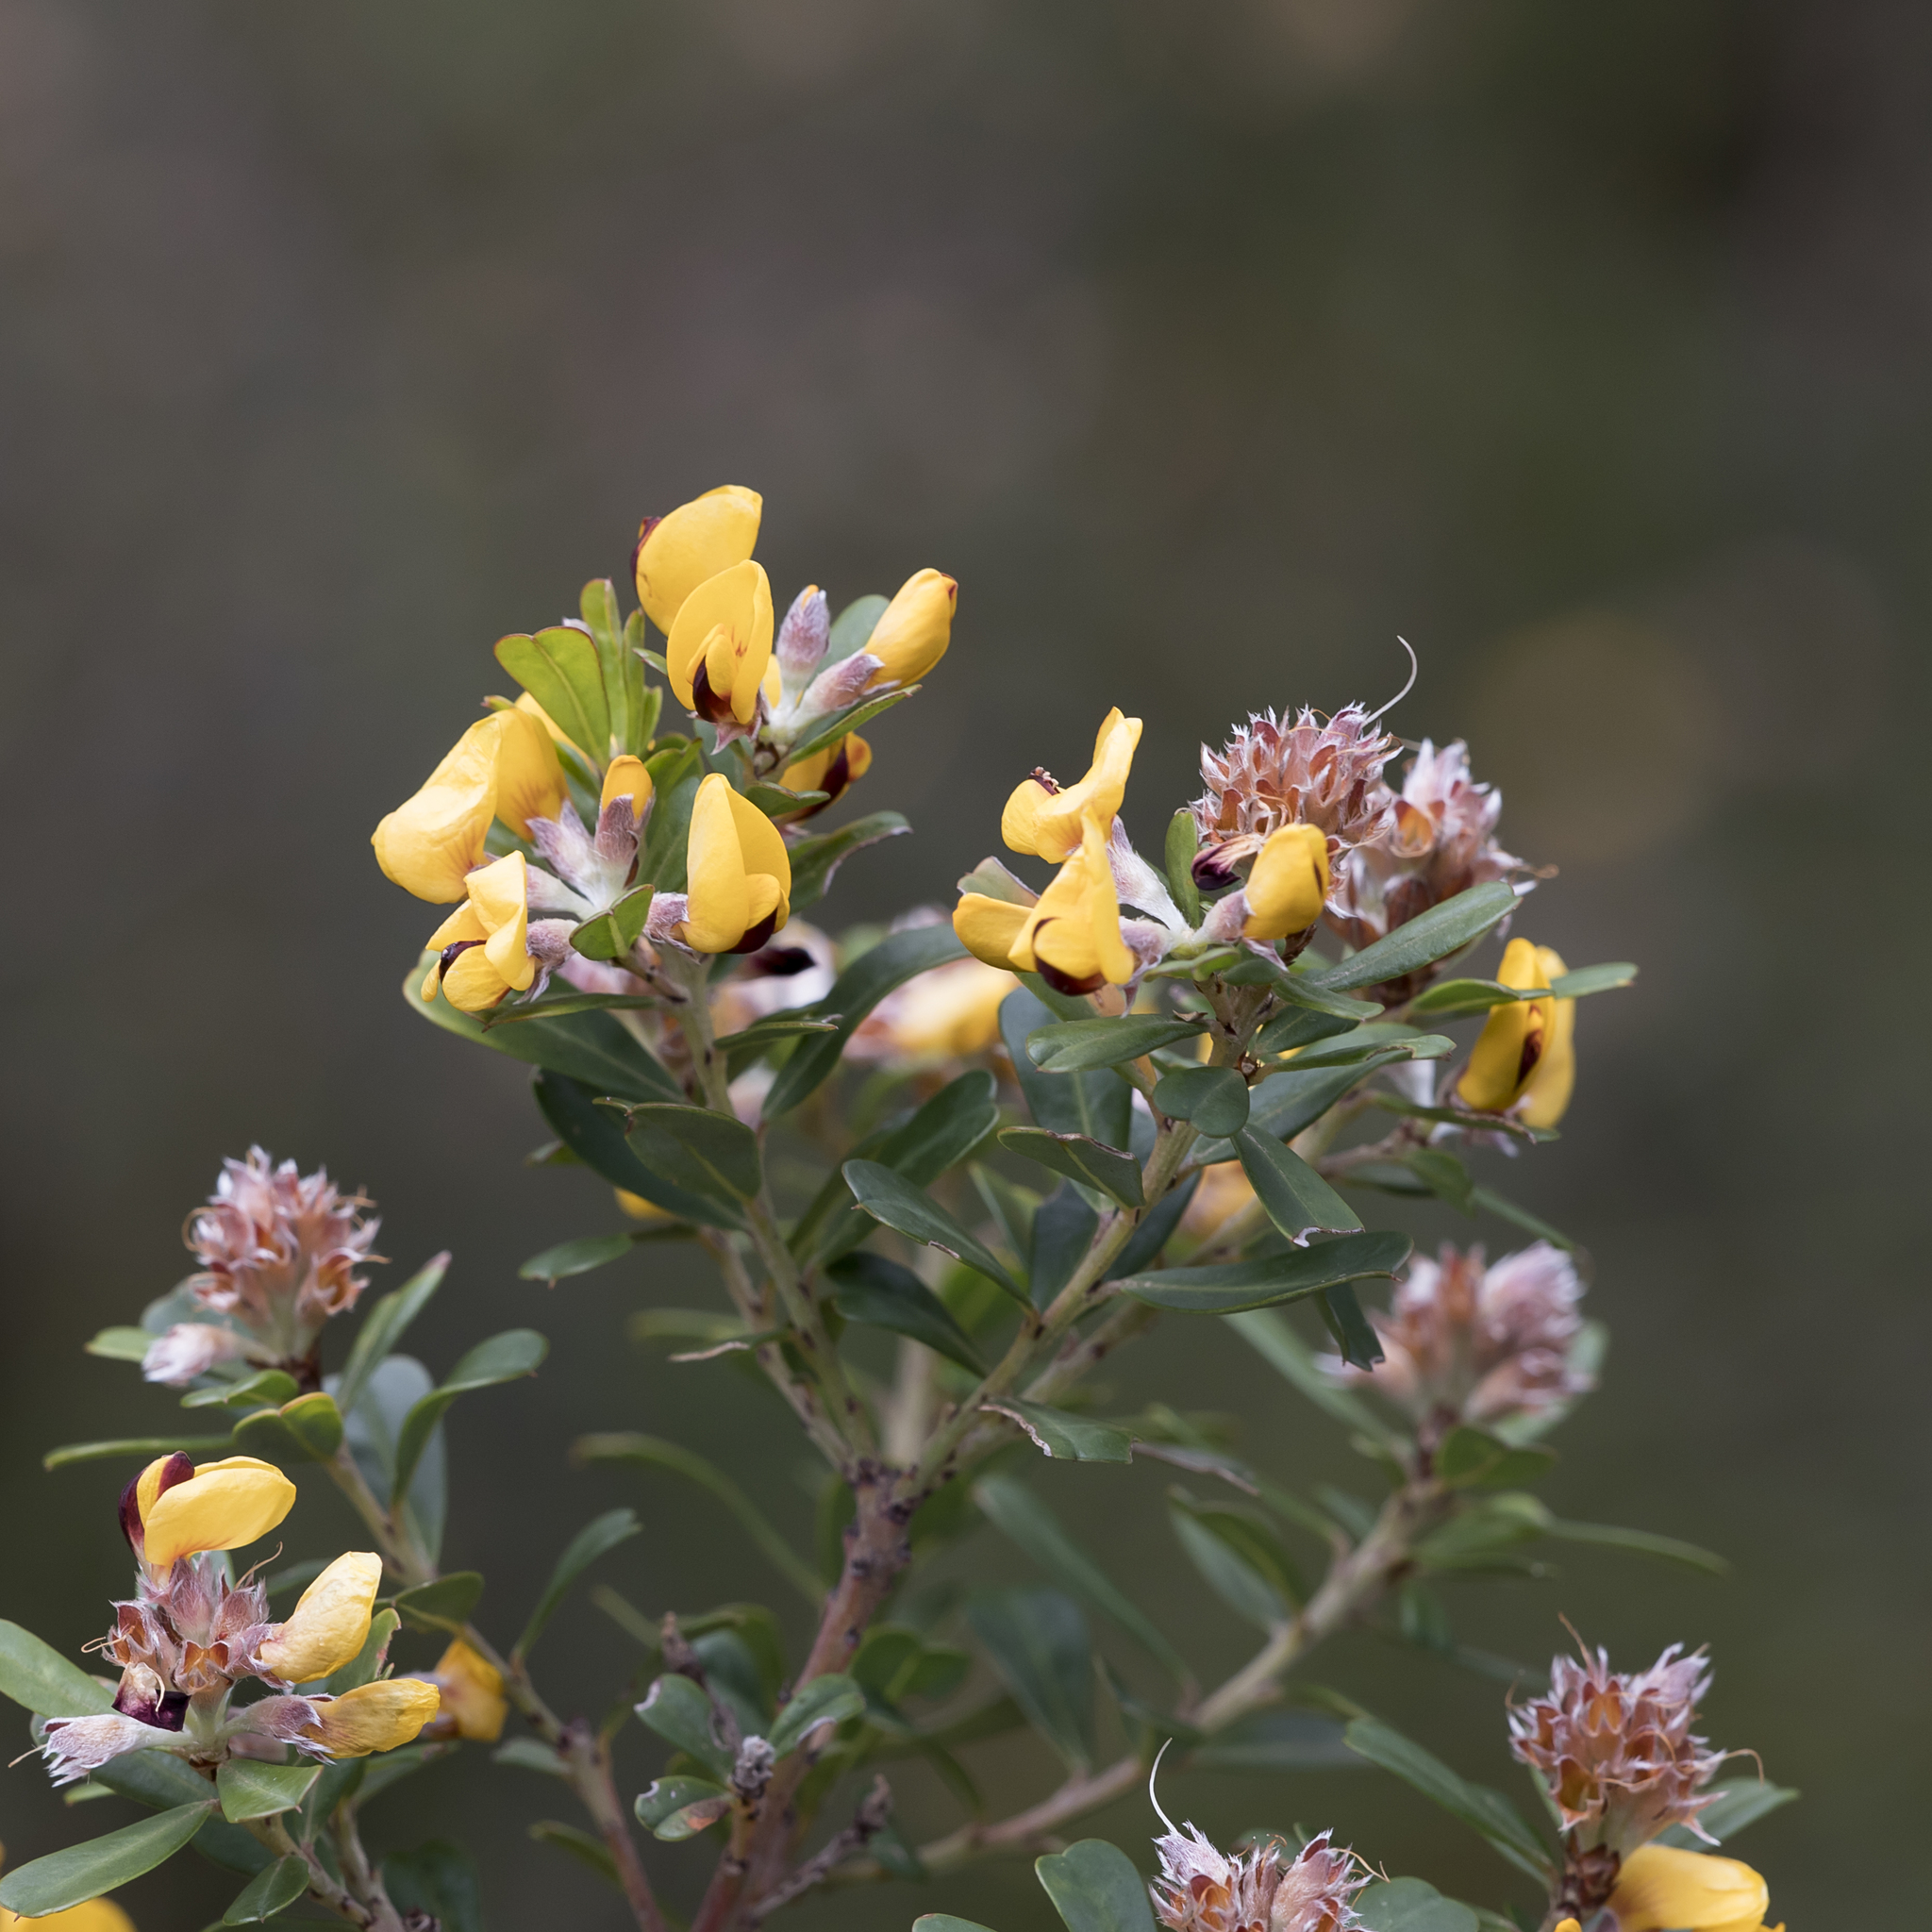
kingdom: Plantae
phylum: Tracheophyta
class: Magnoliopsida
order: Fabales
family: Fabaceae
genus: Pultenaea
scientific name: Pultenaea daphnoides
